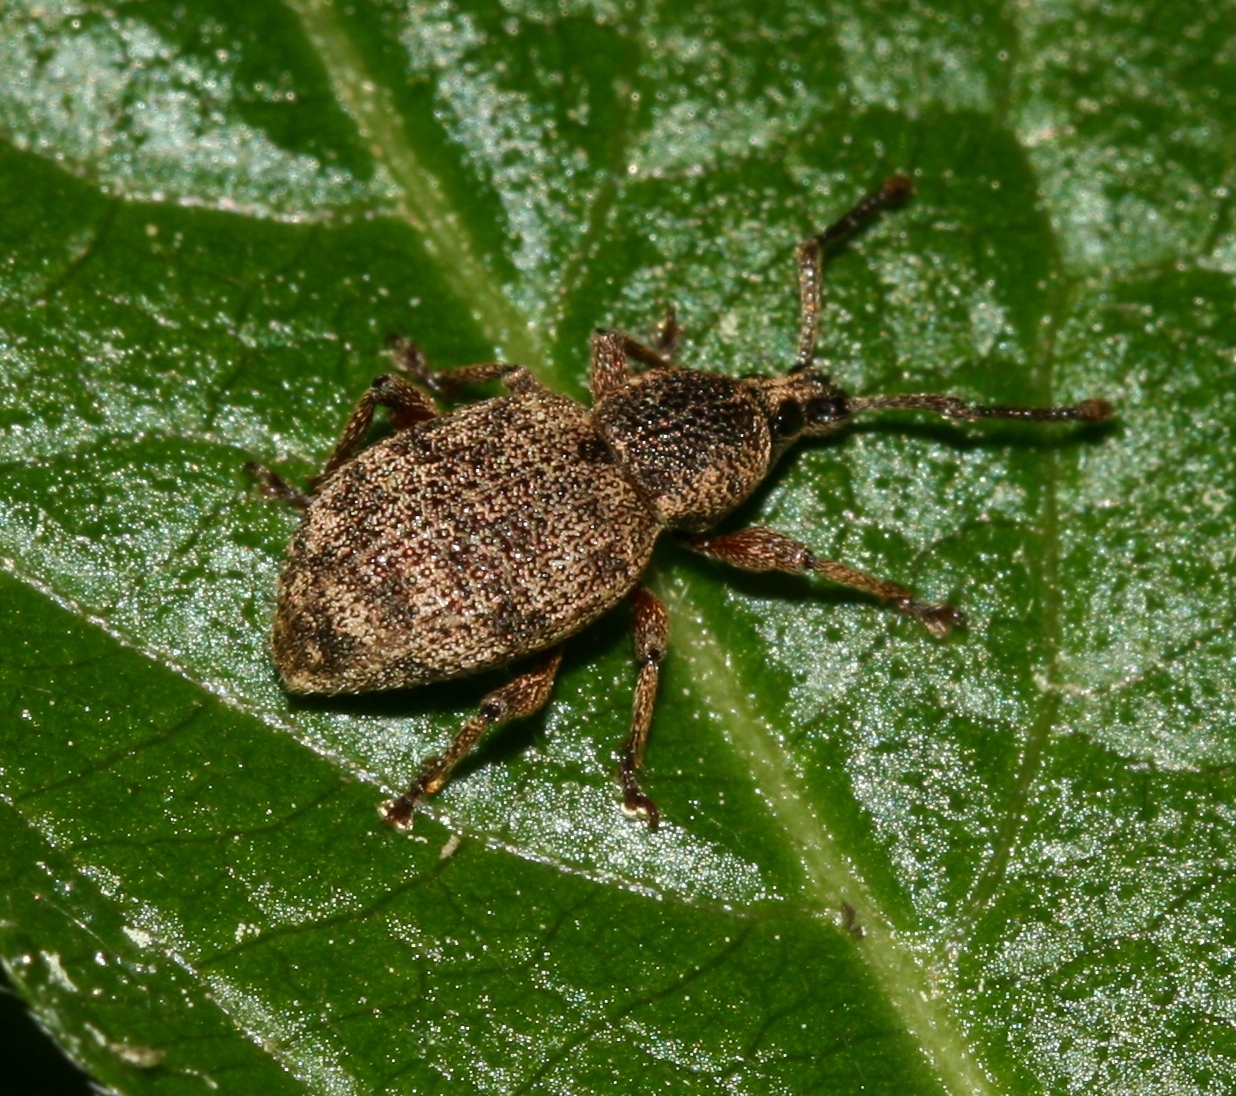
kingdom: Animalia
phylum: Arthropoda
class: Insecta
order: Coleoptera
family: Curculionidae
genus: Otiorhynchus
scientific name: Otiorhynchus singularis
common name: Clay-coloured weevil
